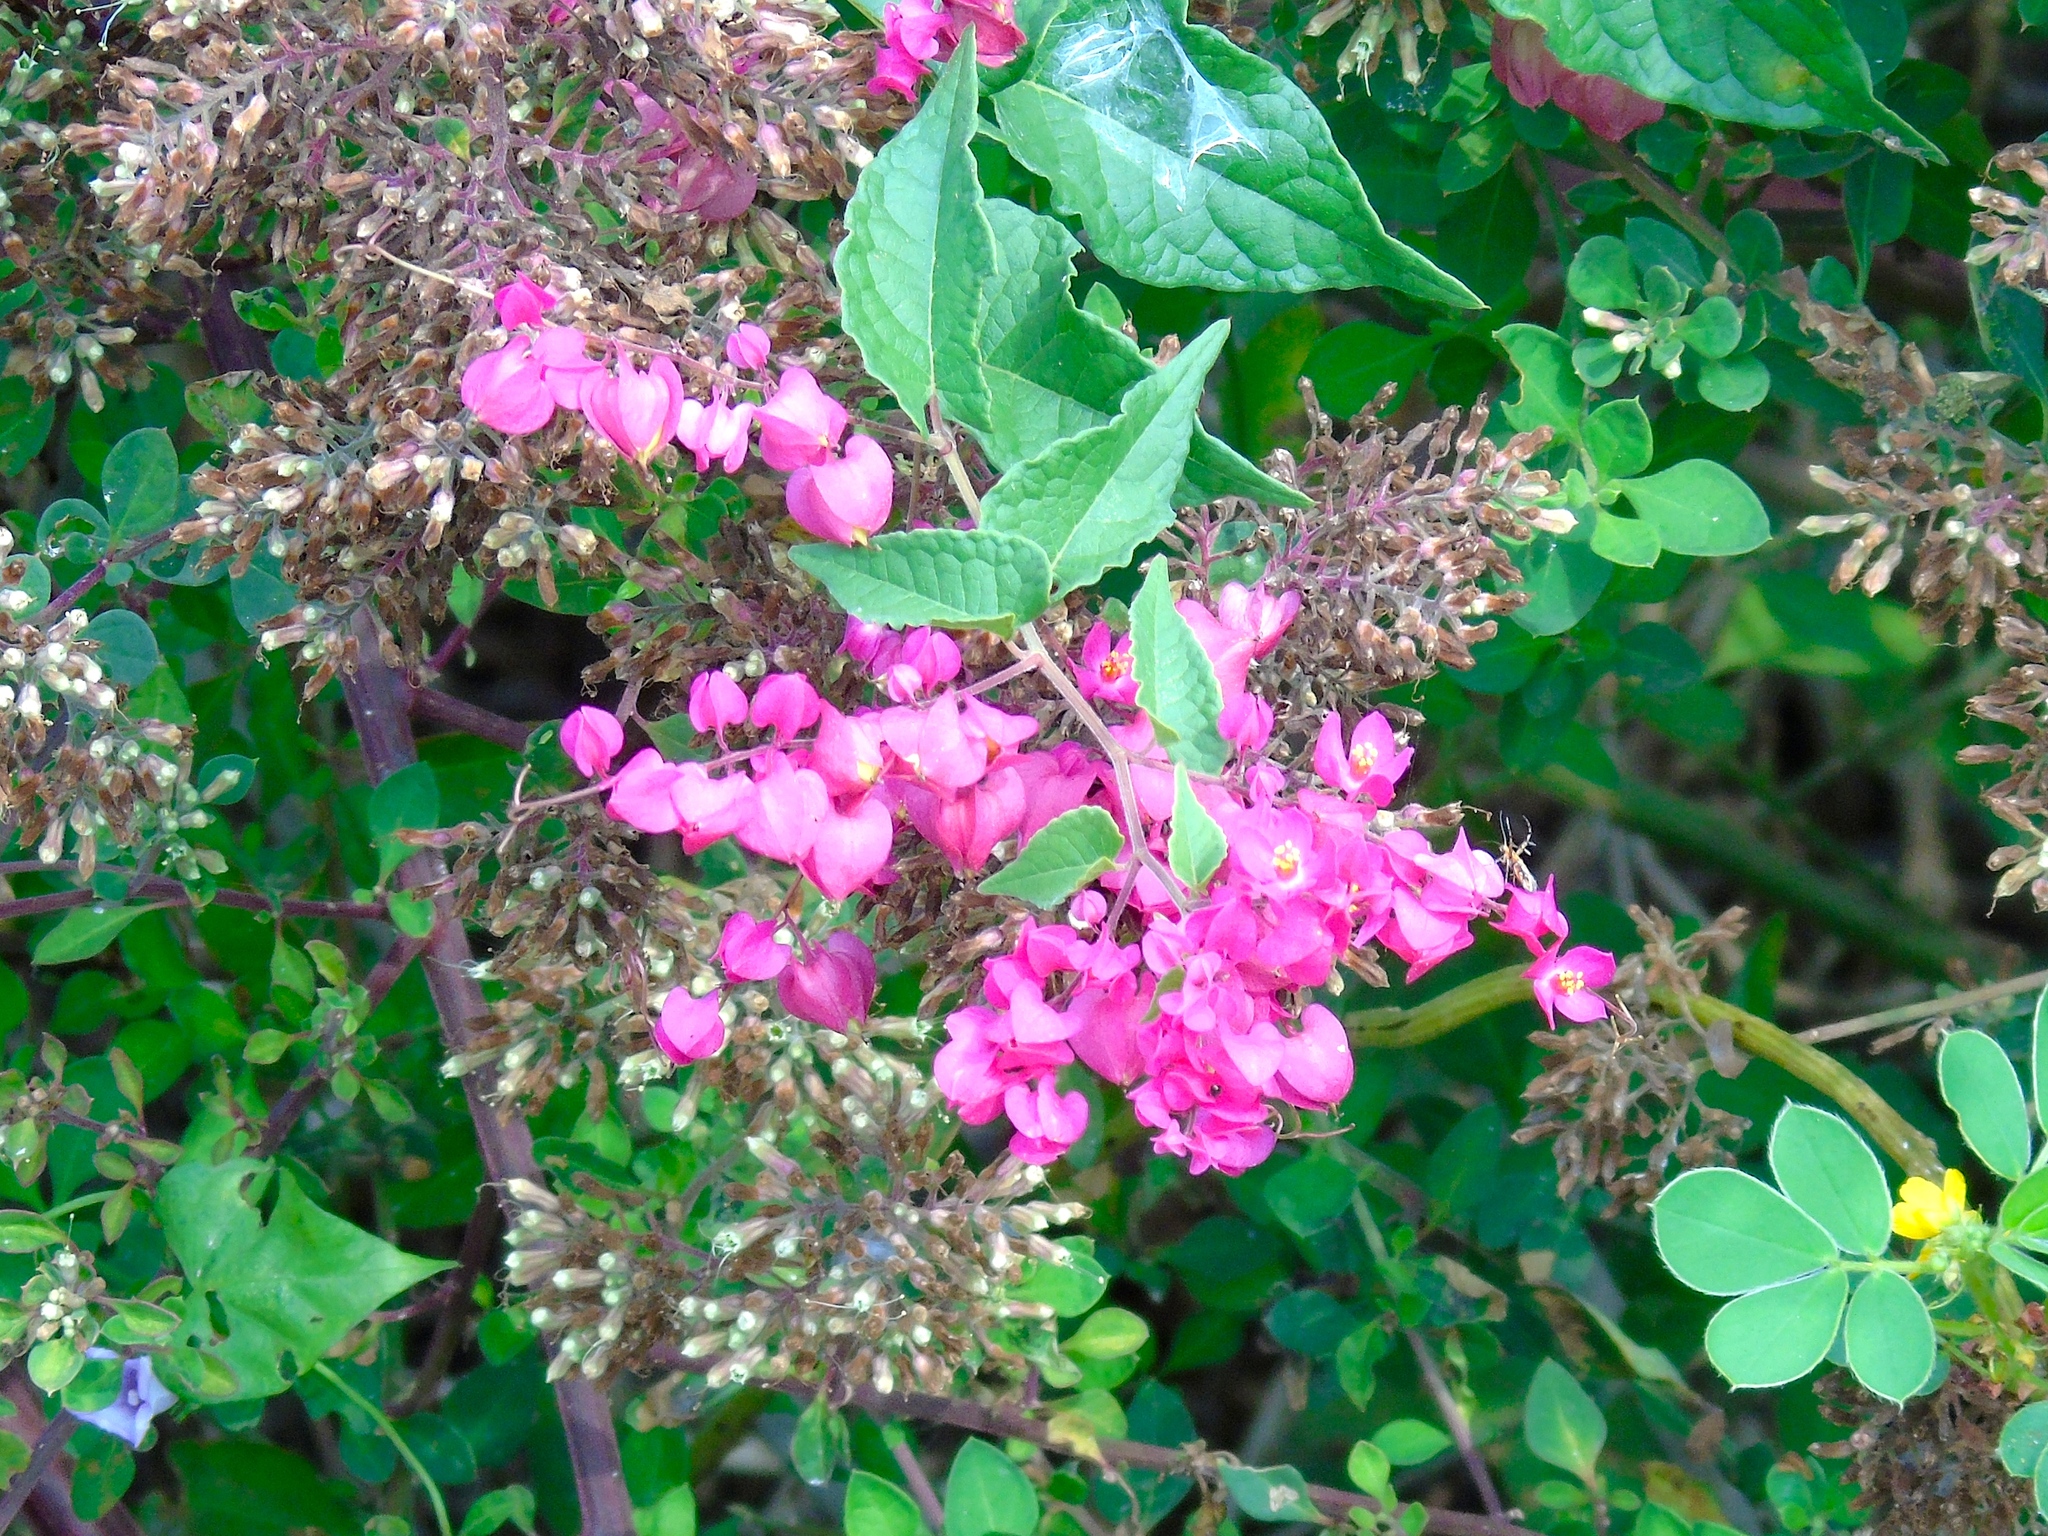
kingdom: Plantae
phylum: Tracheophyta
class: Magnoliopsida
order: Caryophyllales
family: Polygonaceae
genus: Antigonon
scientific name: Antigonon leptopus
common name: Coral vine
